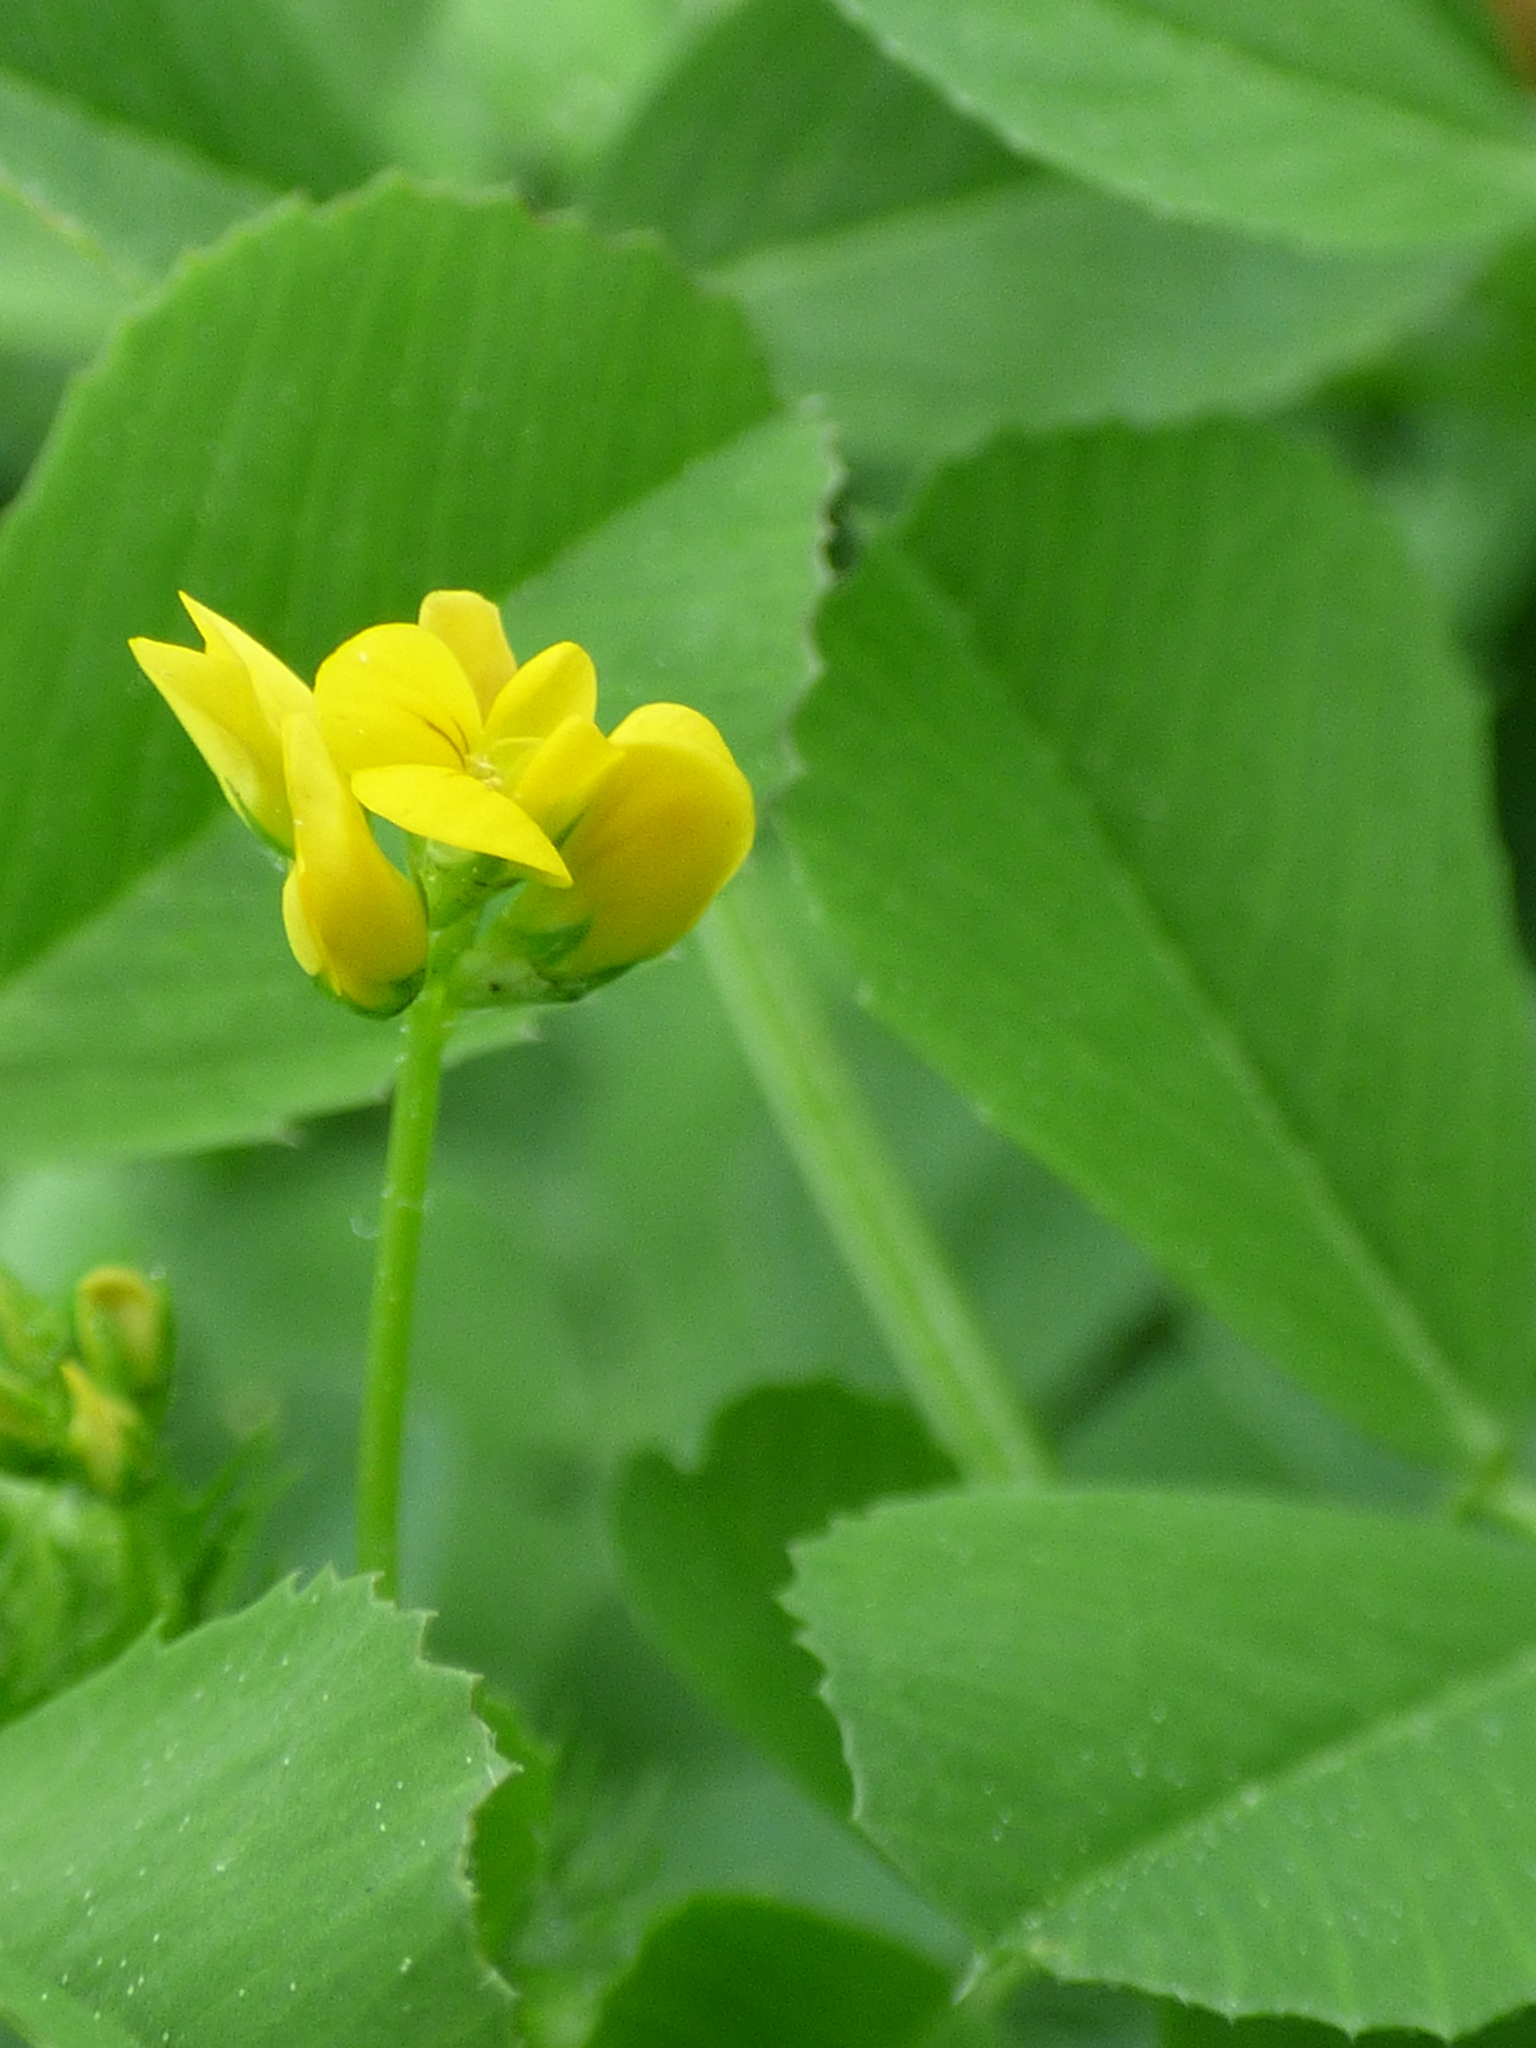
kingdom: Plantae
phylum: Tracheophyta
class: Magnoliopsida
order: Fabales
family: Fabaceae
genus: Medicago
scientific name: Medicago polymorpha
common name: Burclover
